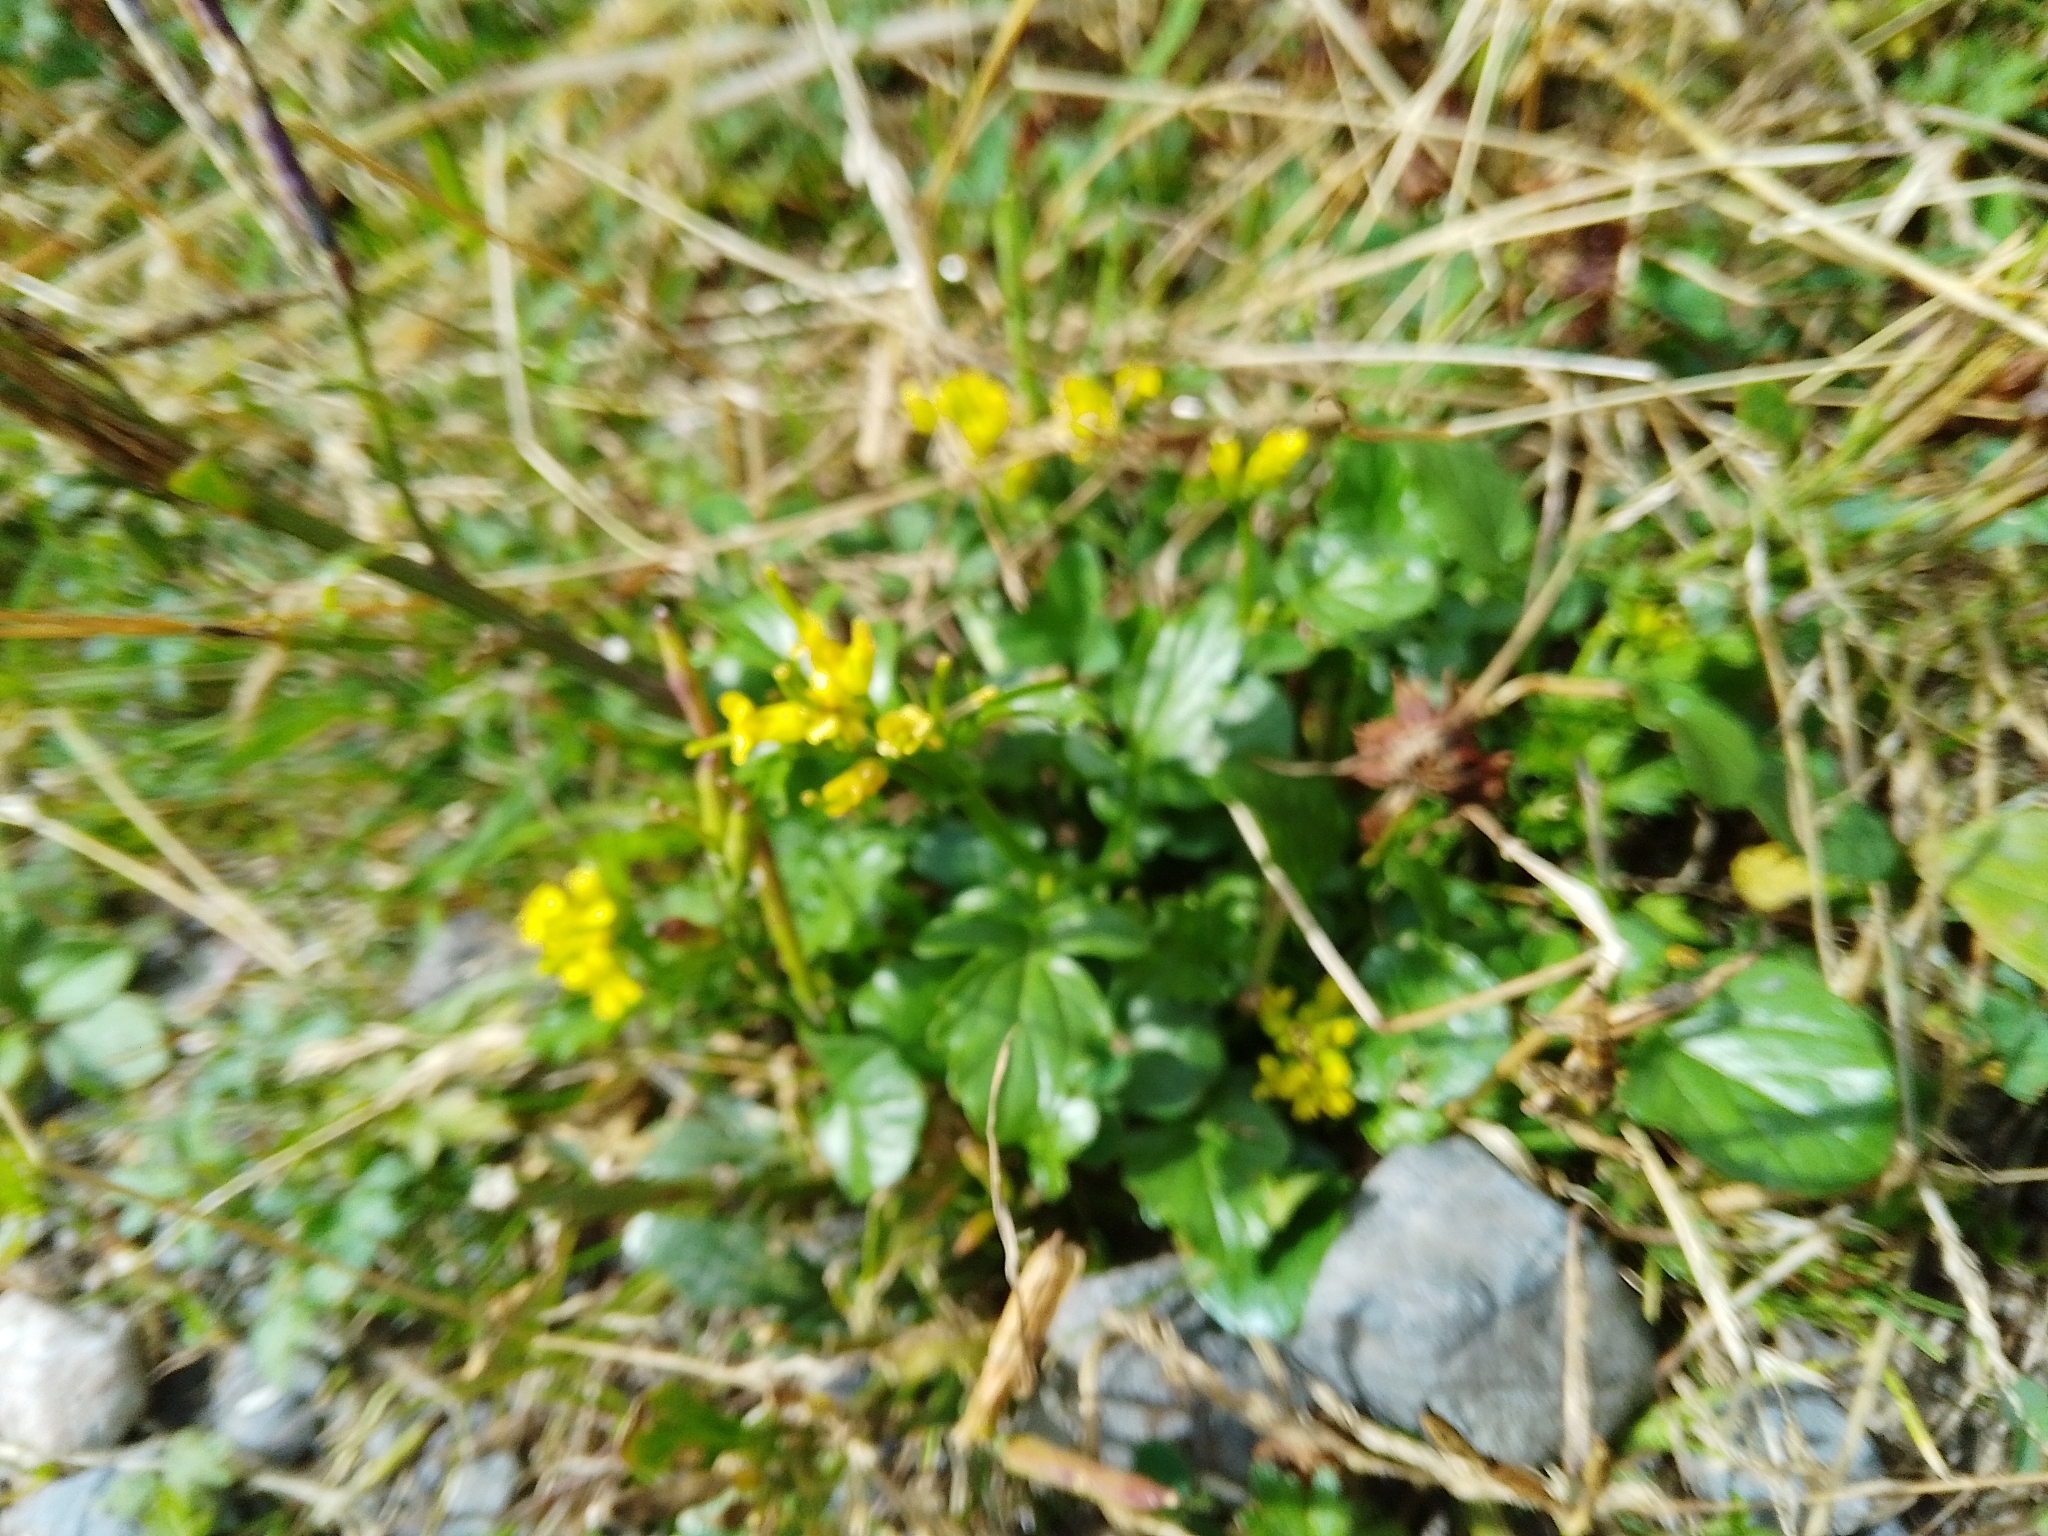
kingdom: Plantae
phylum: Tracheophyta
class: Magnoliopsida
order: Brassicales
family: Brassicaceae
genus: Barbarea
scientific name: Barbarea vulgaris
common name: Cressy-greens
